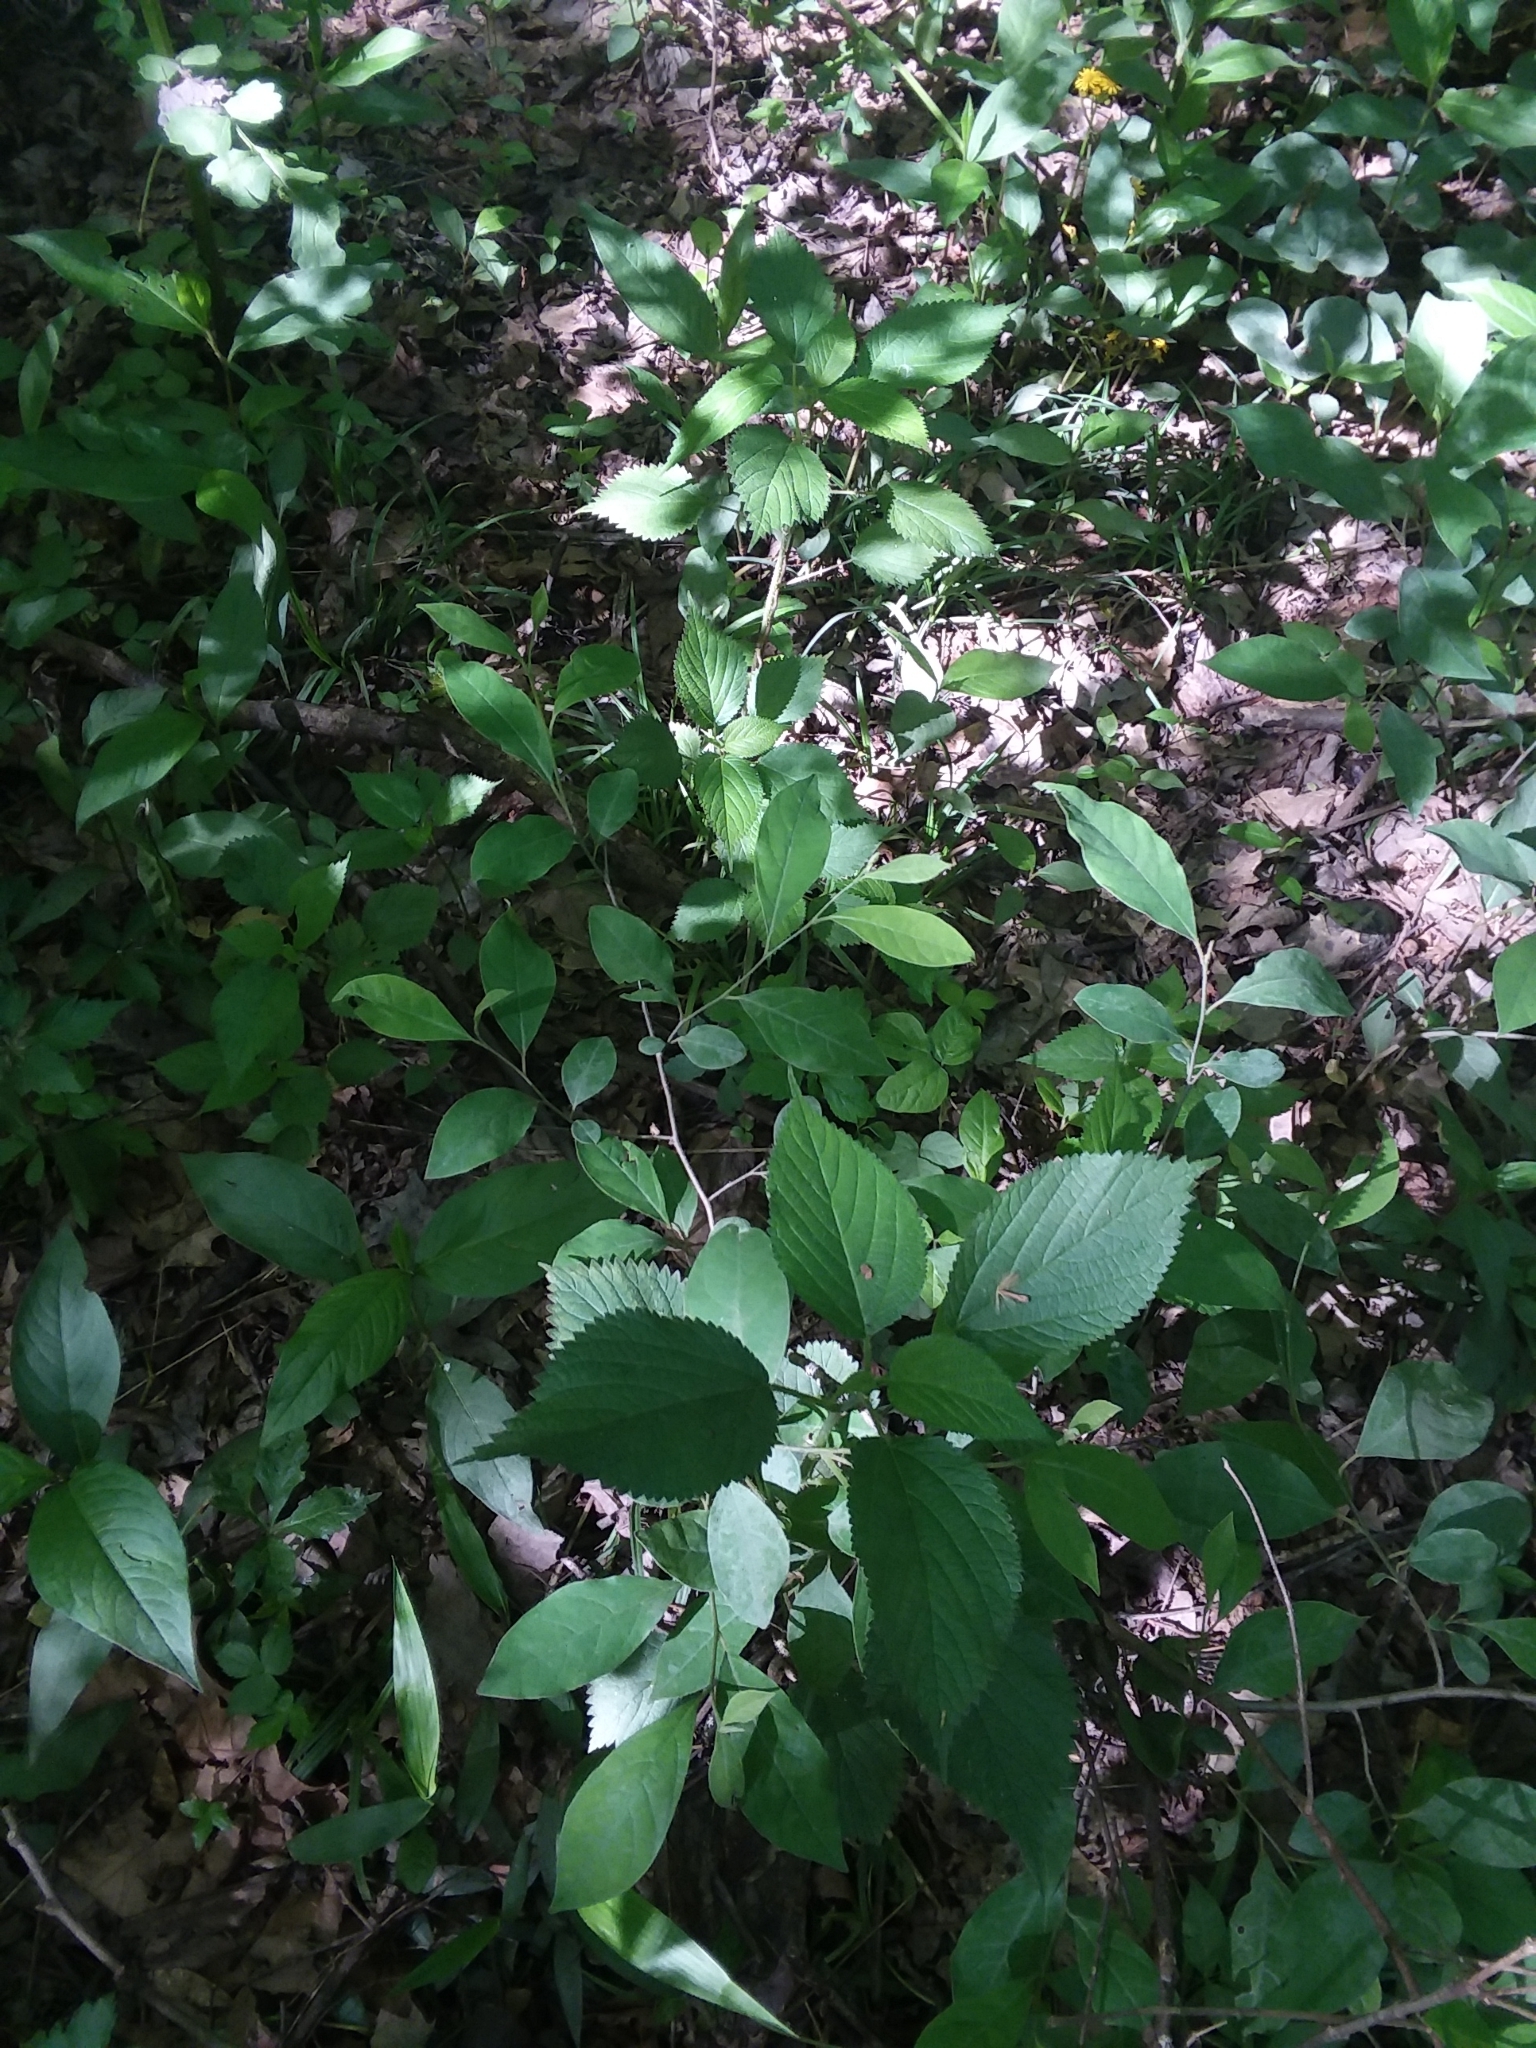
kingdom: Plantae
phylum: Tracheophyta
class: Magnoliopsida
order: Rosales
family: Urticaceae
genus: Laportea
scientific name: Laportea canadensis
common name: Canada nettle
